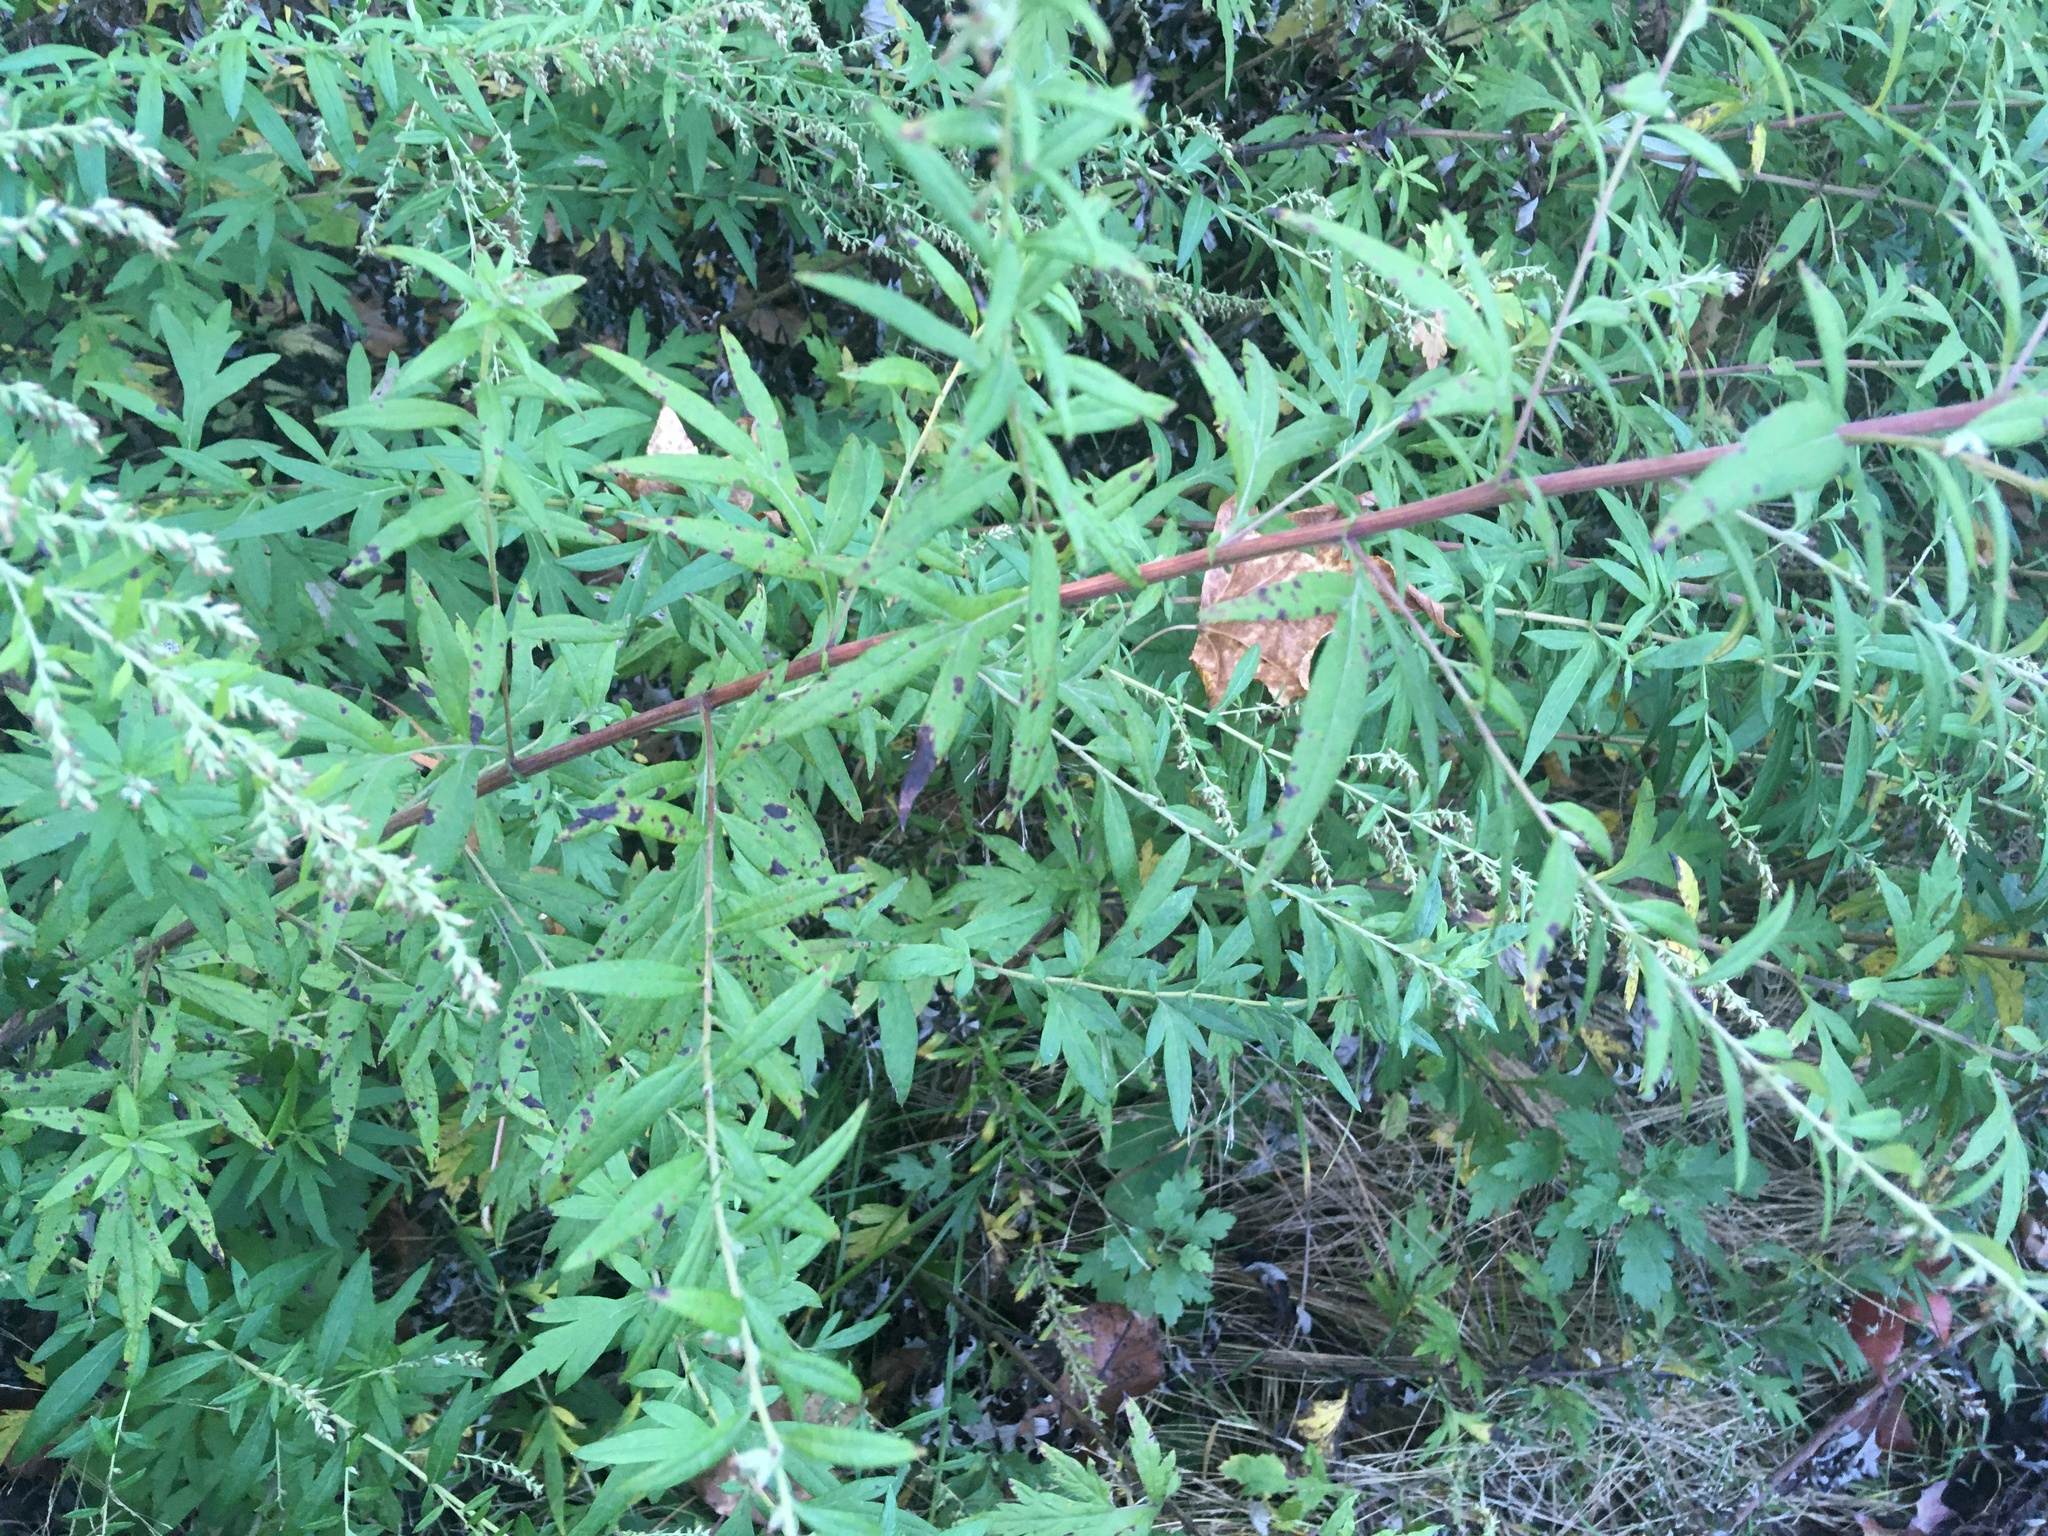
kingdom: Plantae
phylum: Tracheophyta
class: Magnoliopsida
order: Asterales
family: Asteraceae
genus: Artemisia
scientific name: Artemisia vulgaris
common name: Mugwort
